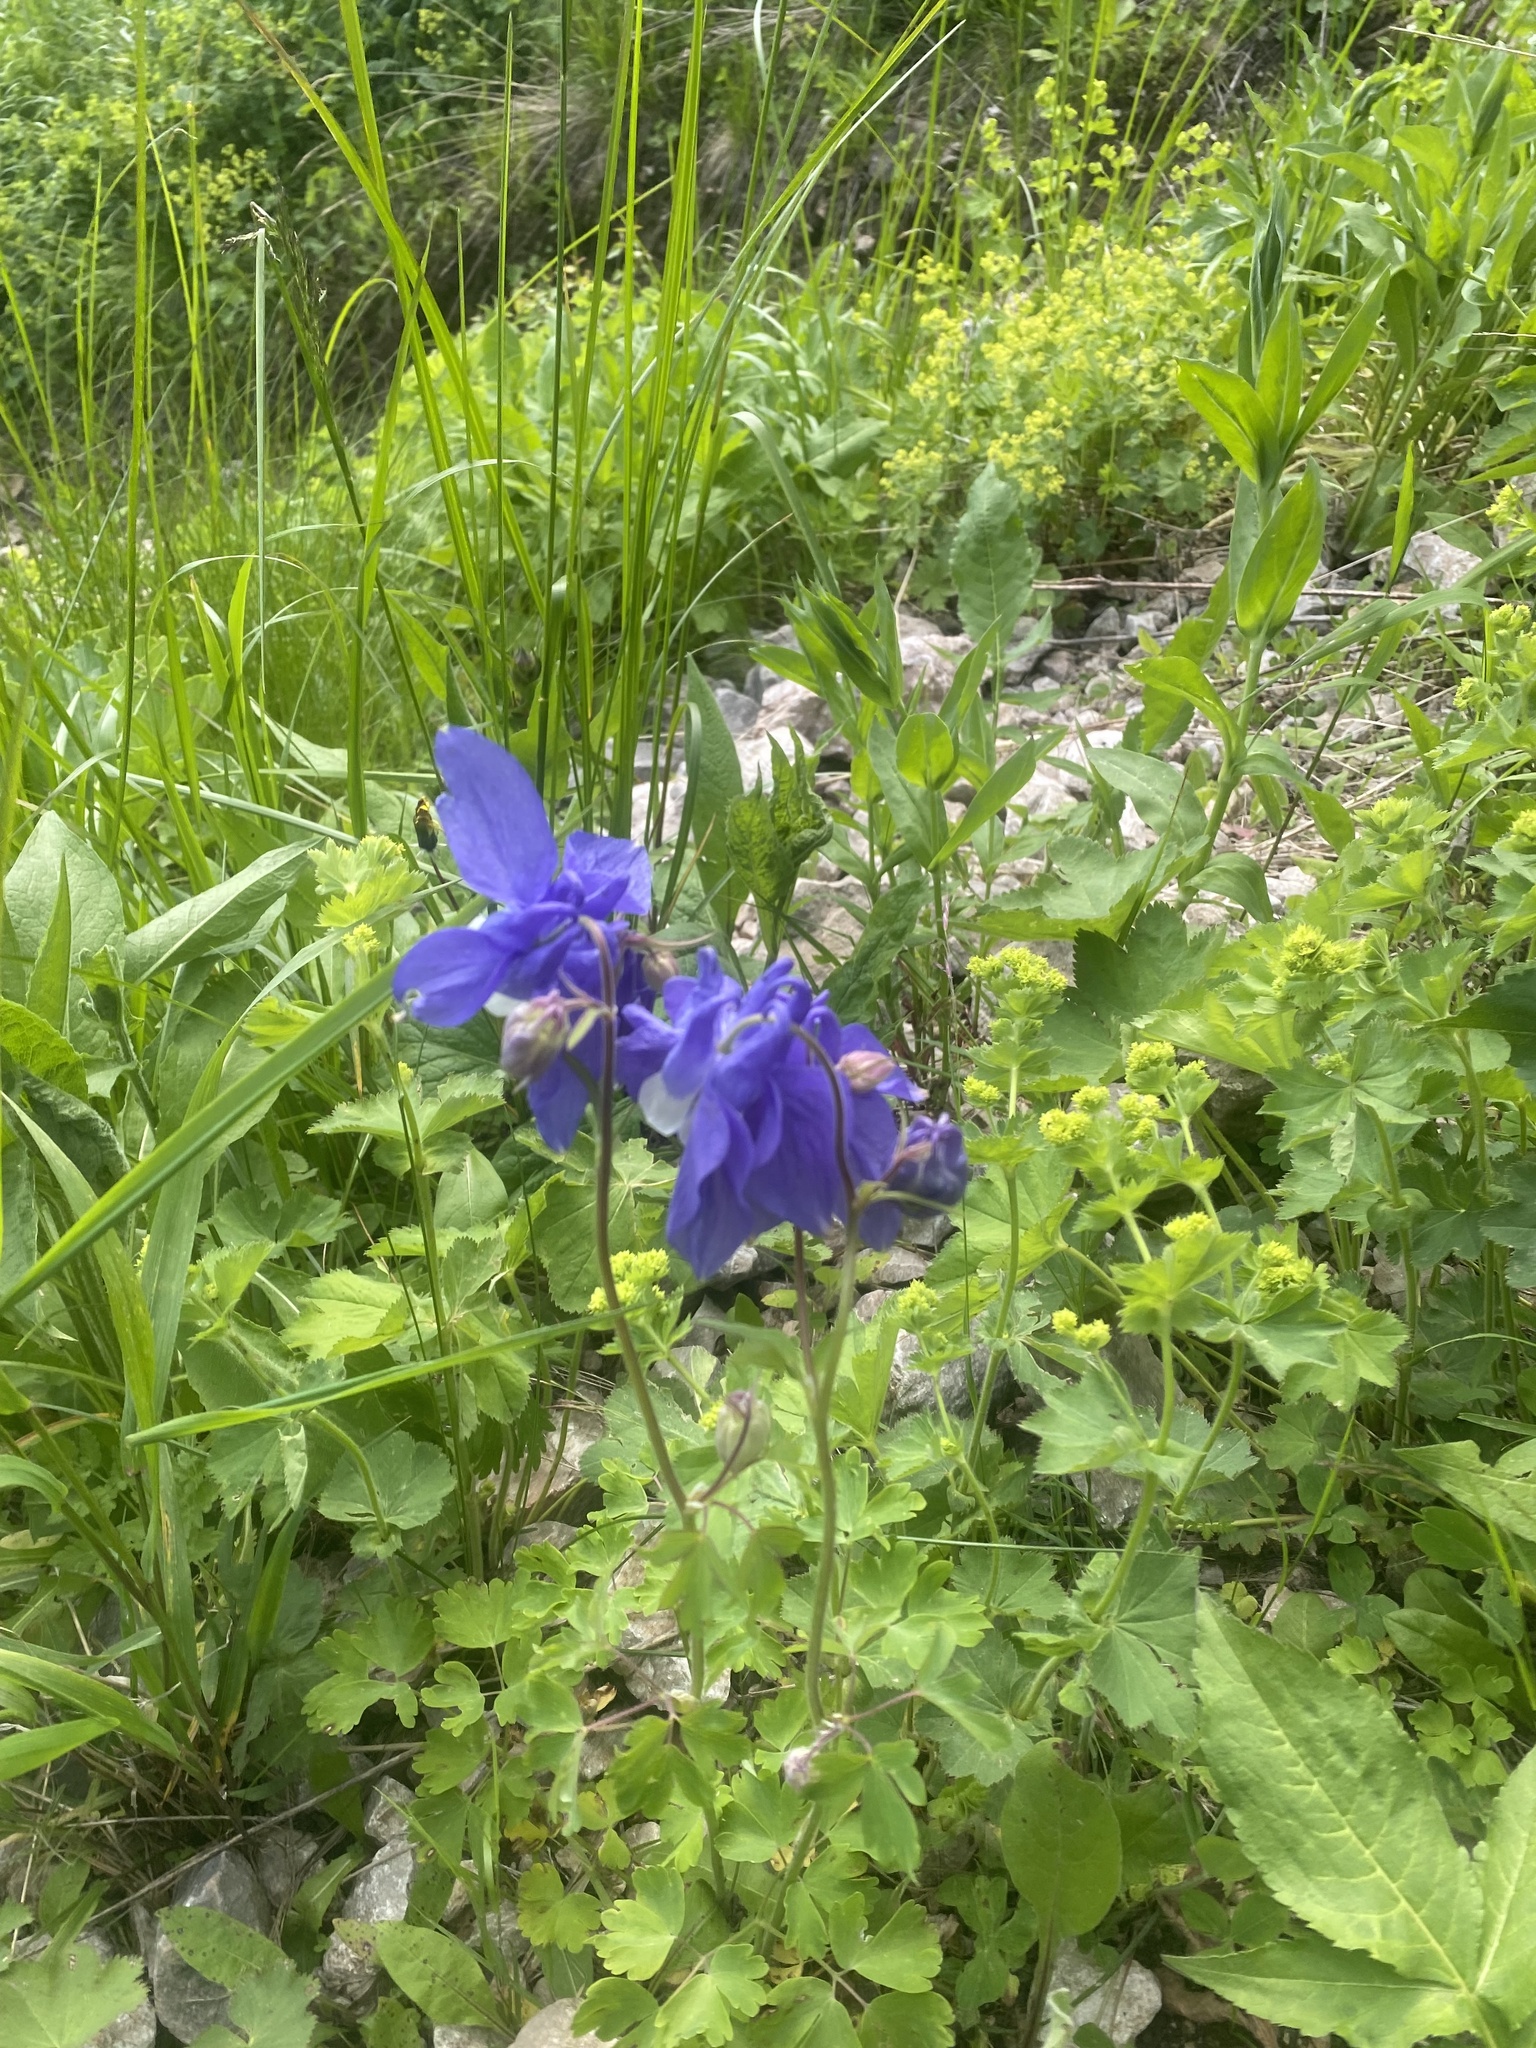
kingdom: Plantae
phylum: Tracheophyta
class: Magnoliopsida
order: Ranunculales
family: Ranunculaceae
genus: Aquilegia
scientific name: Aquilegia olympica
